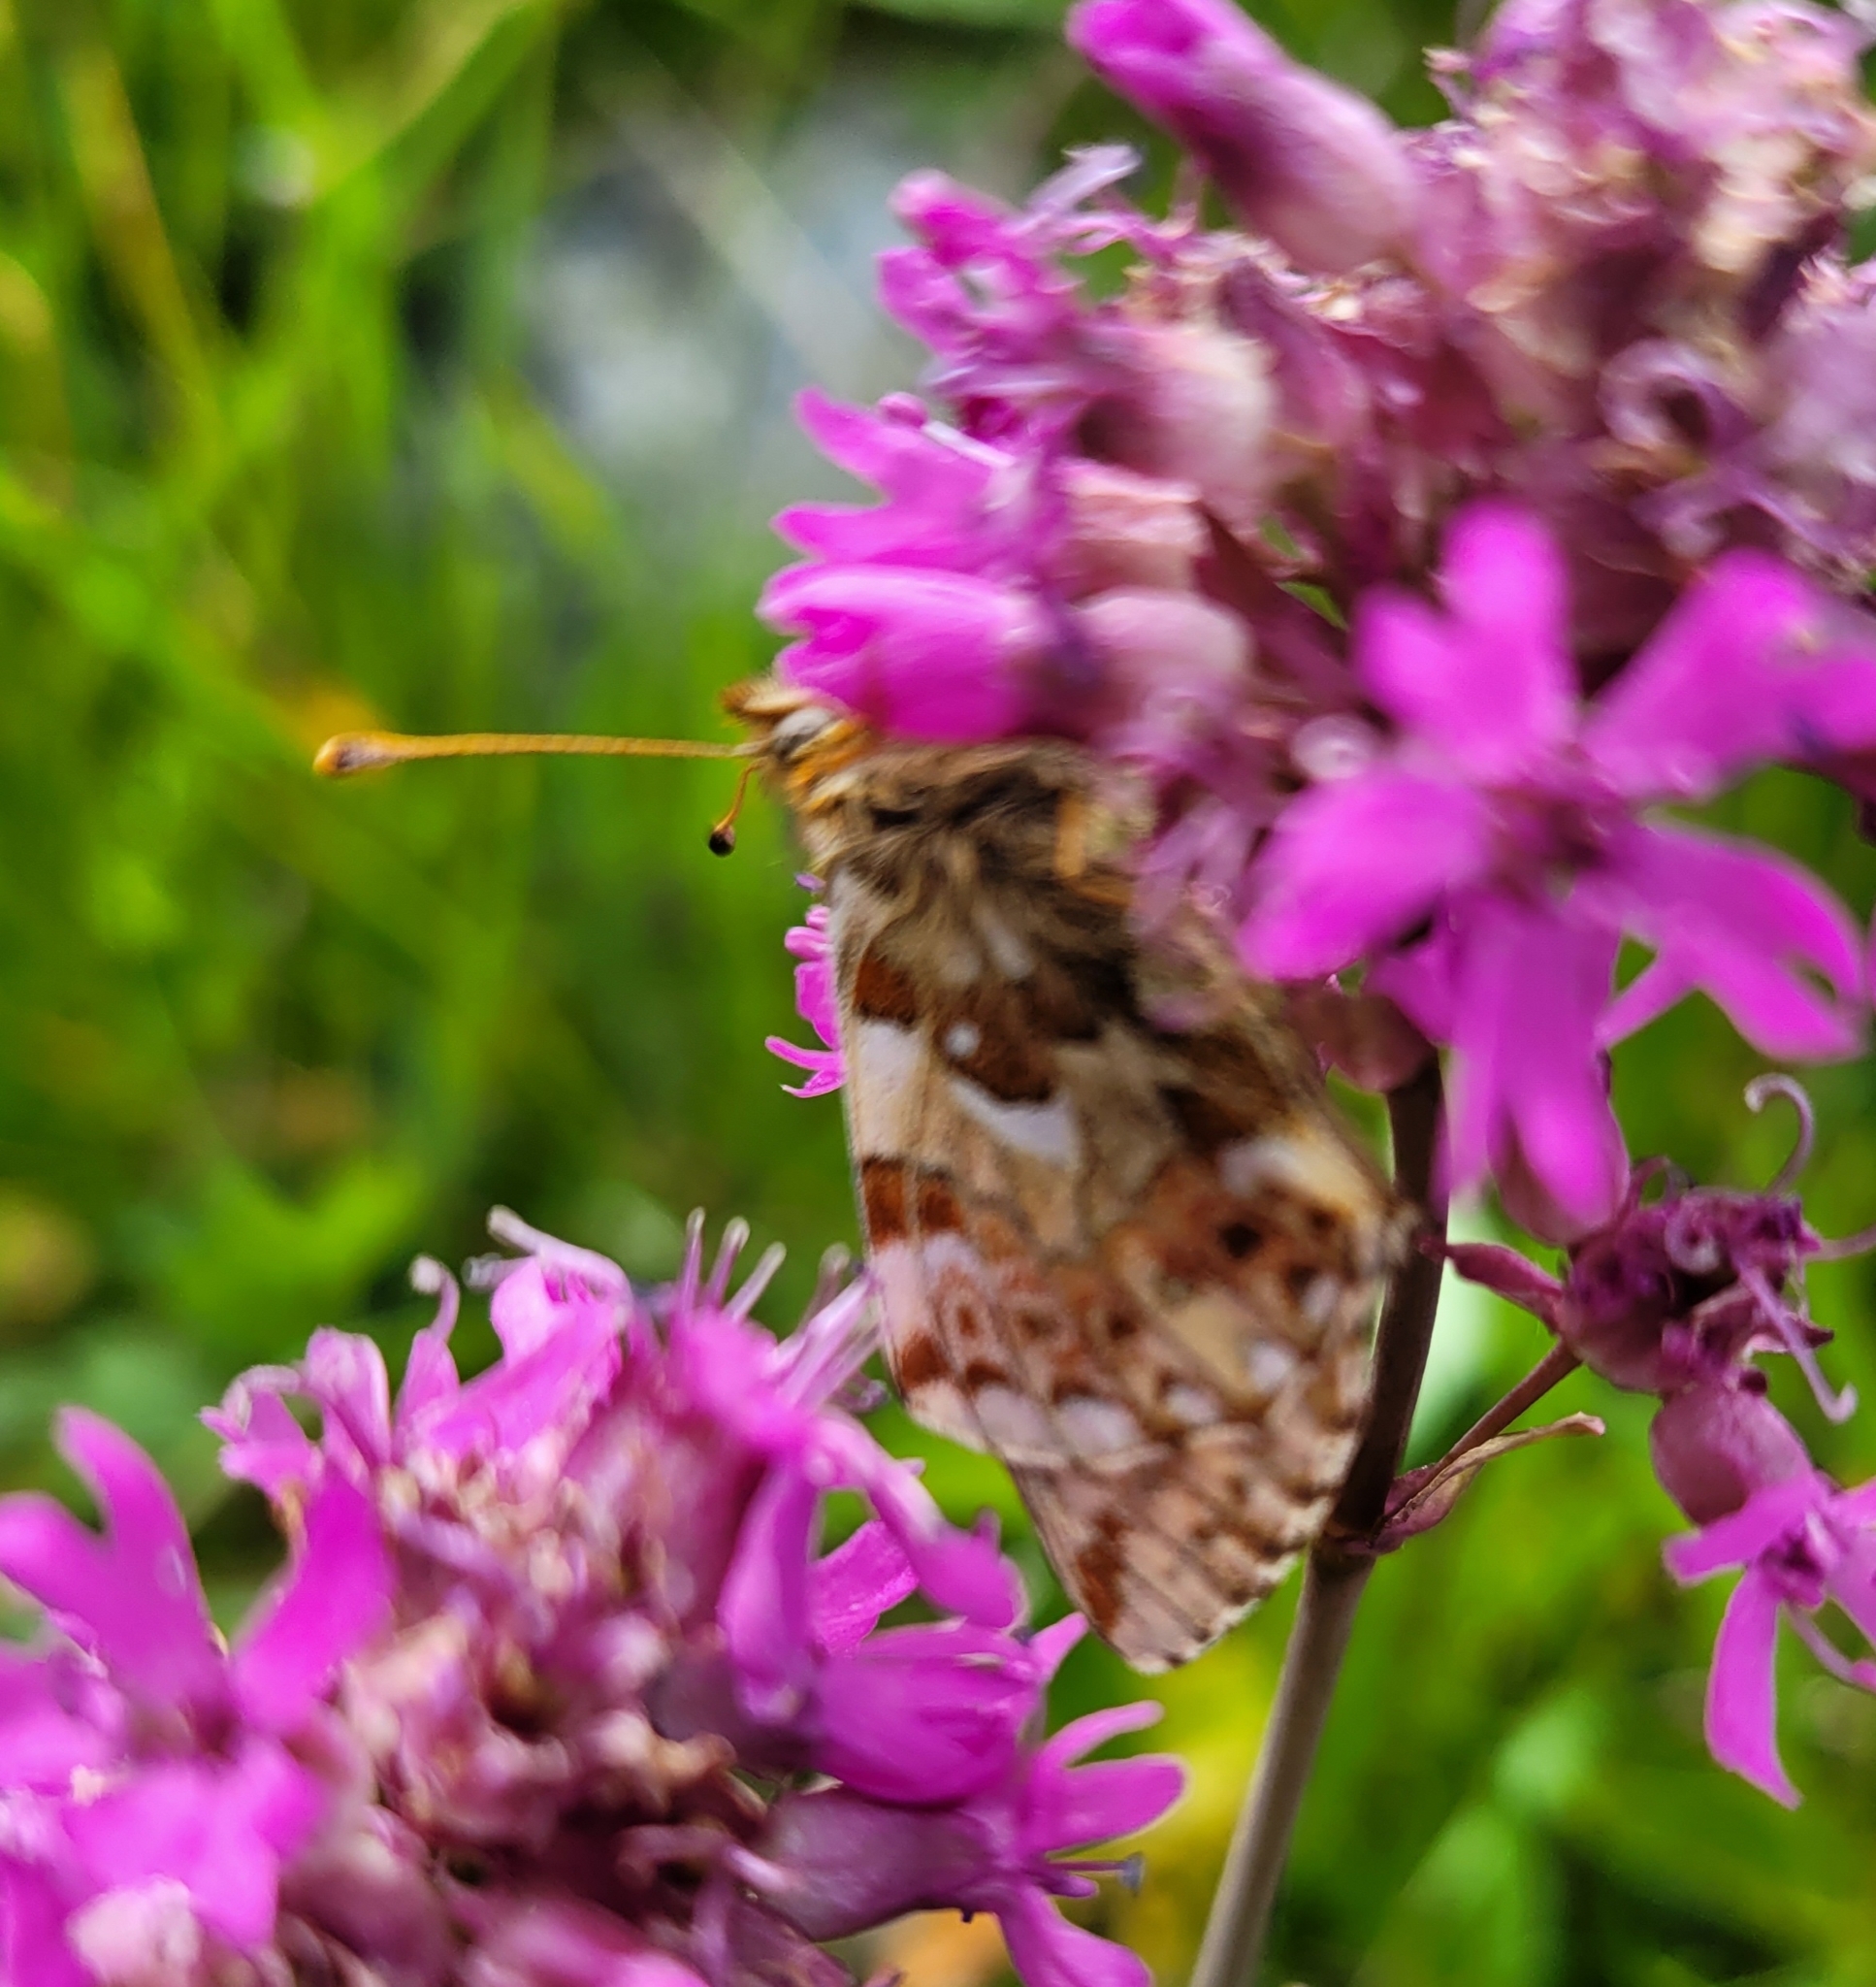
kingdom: Animalia
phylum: Arthropoda
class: Insecta
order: Lepidoptera
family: Nymphalidae
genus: Boloria
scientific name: Boloria napaea
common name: Mountain fritillary
